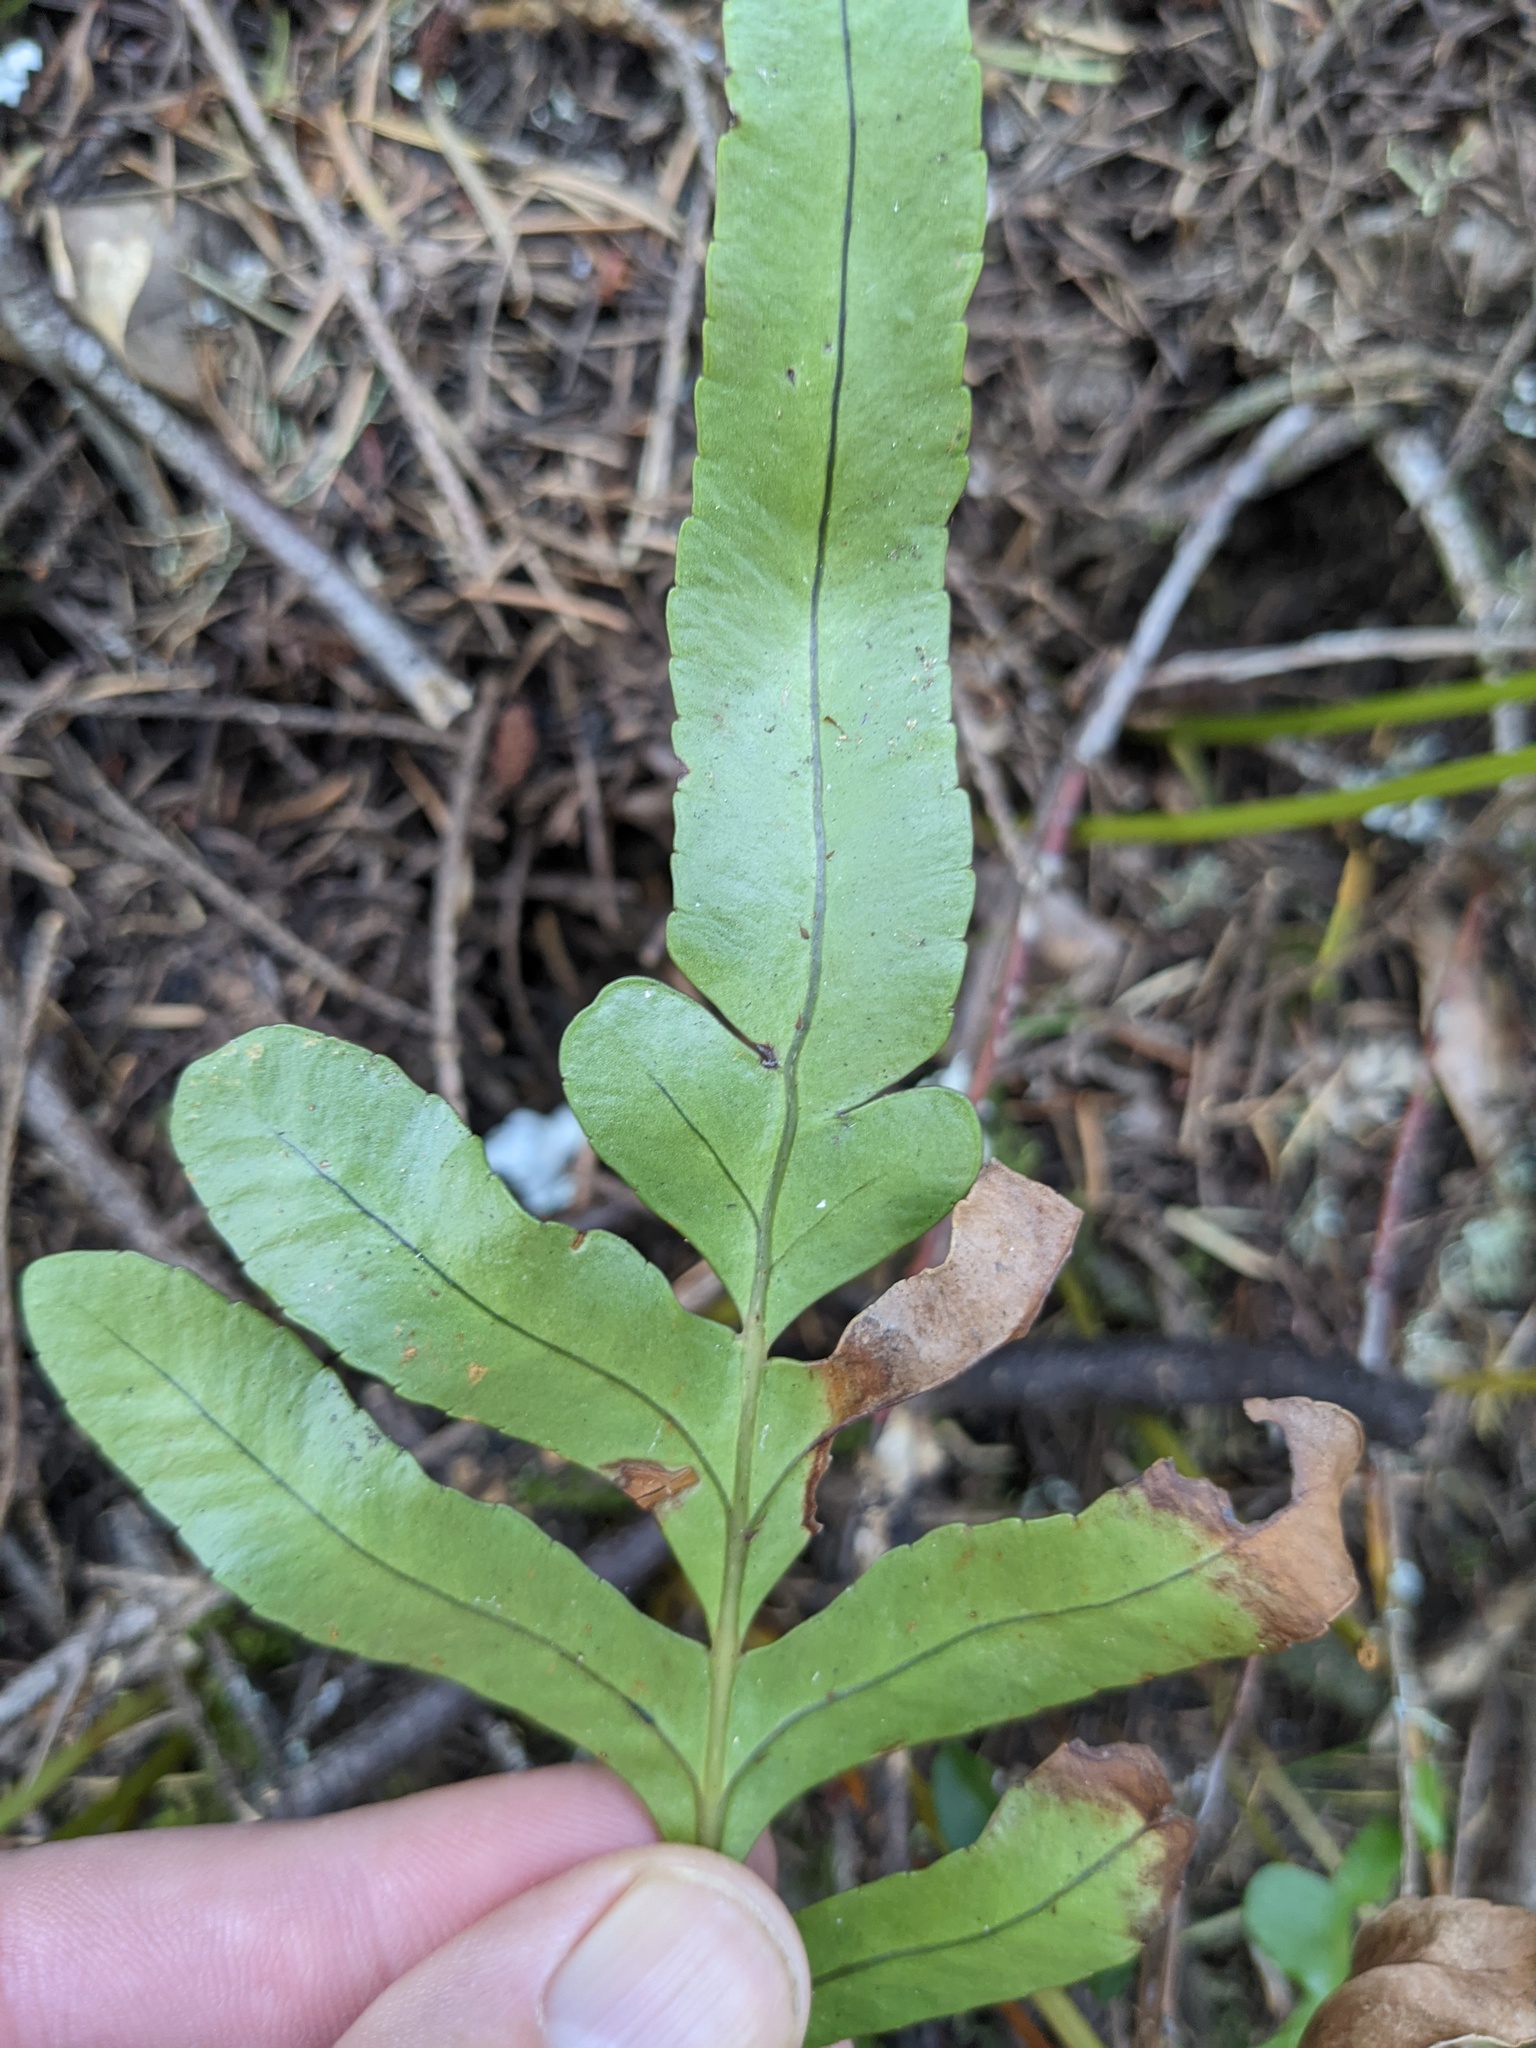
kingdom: Plantae
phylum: Tracheophyta
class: Polypodiopsida
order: Polypodiales
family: Polypodiaceae
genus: Polypodium
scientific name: Polypodium scouleri
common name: Scouler's polypody
